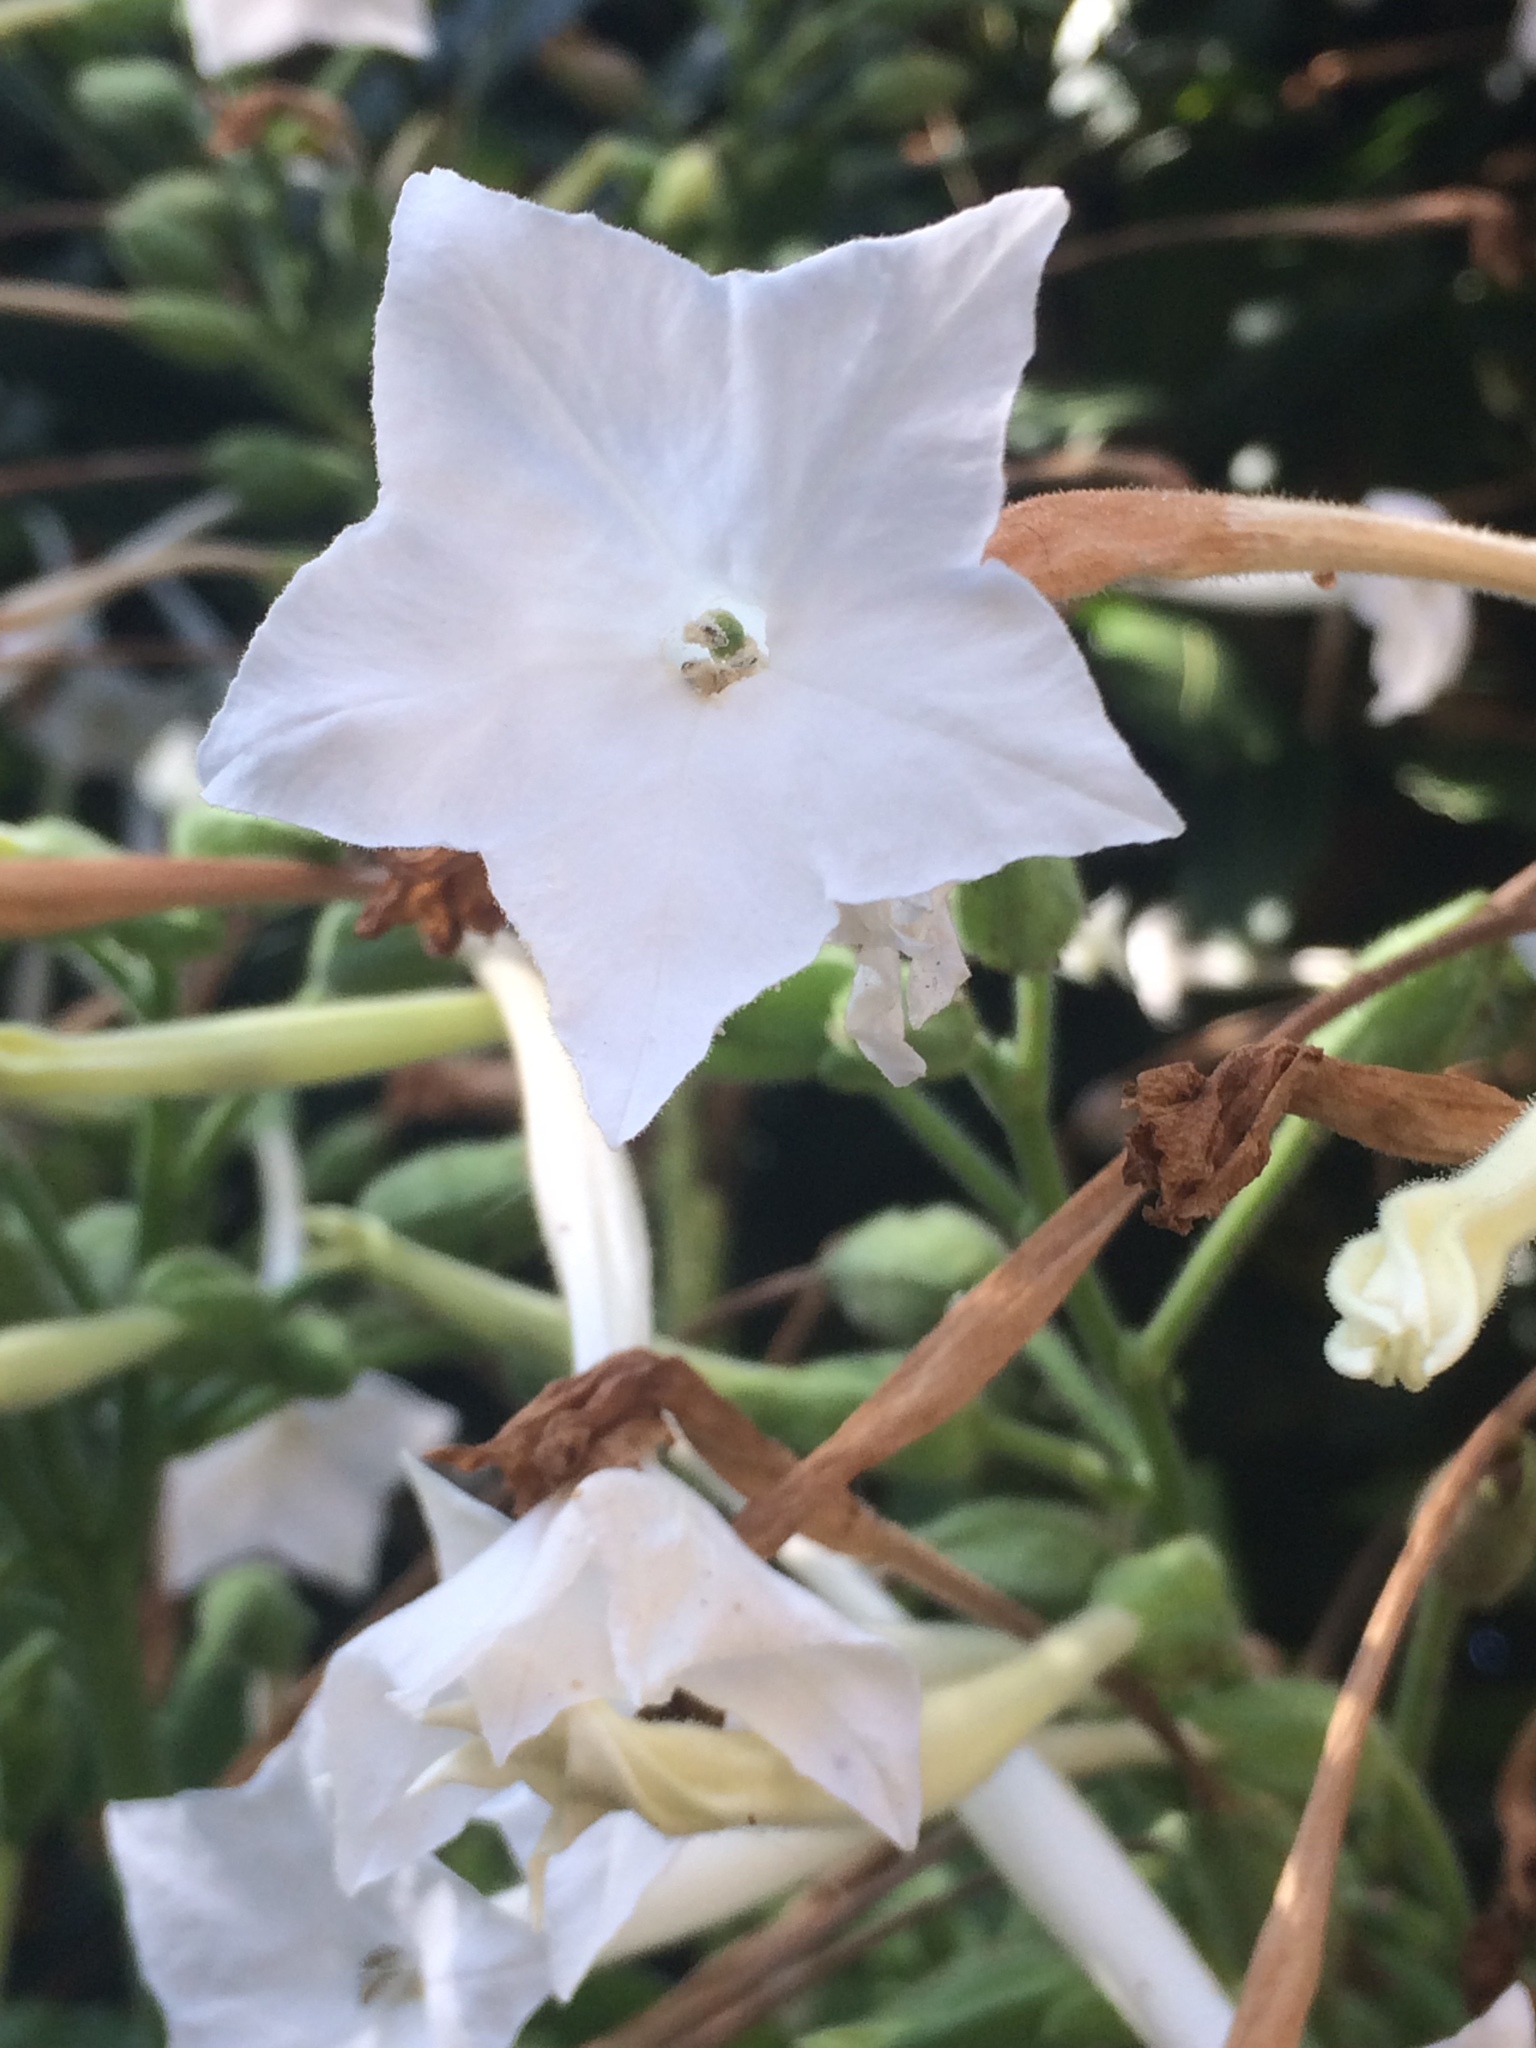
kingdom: Plantae
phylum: Tracheophyta
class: Magnoliopsida
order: Solanales
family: Solanaceae
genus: Nicotiana
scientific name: Nicotiana sylvestris
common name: Flowering tobacco
